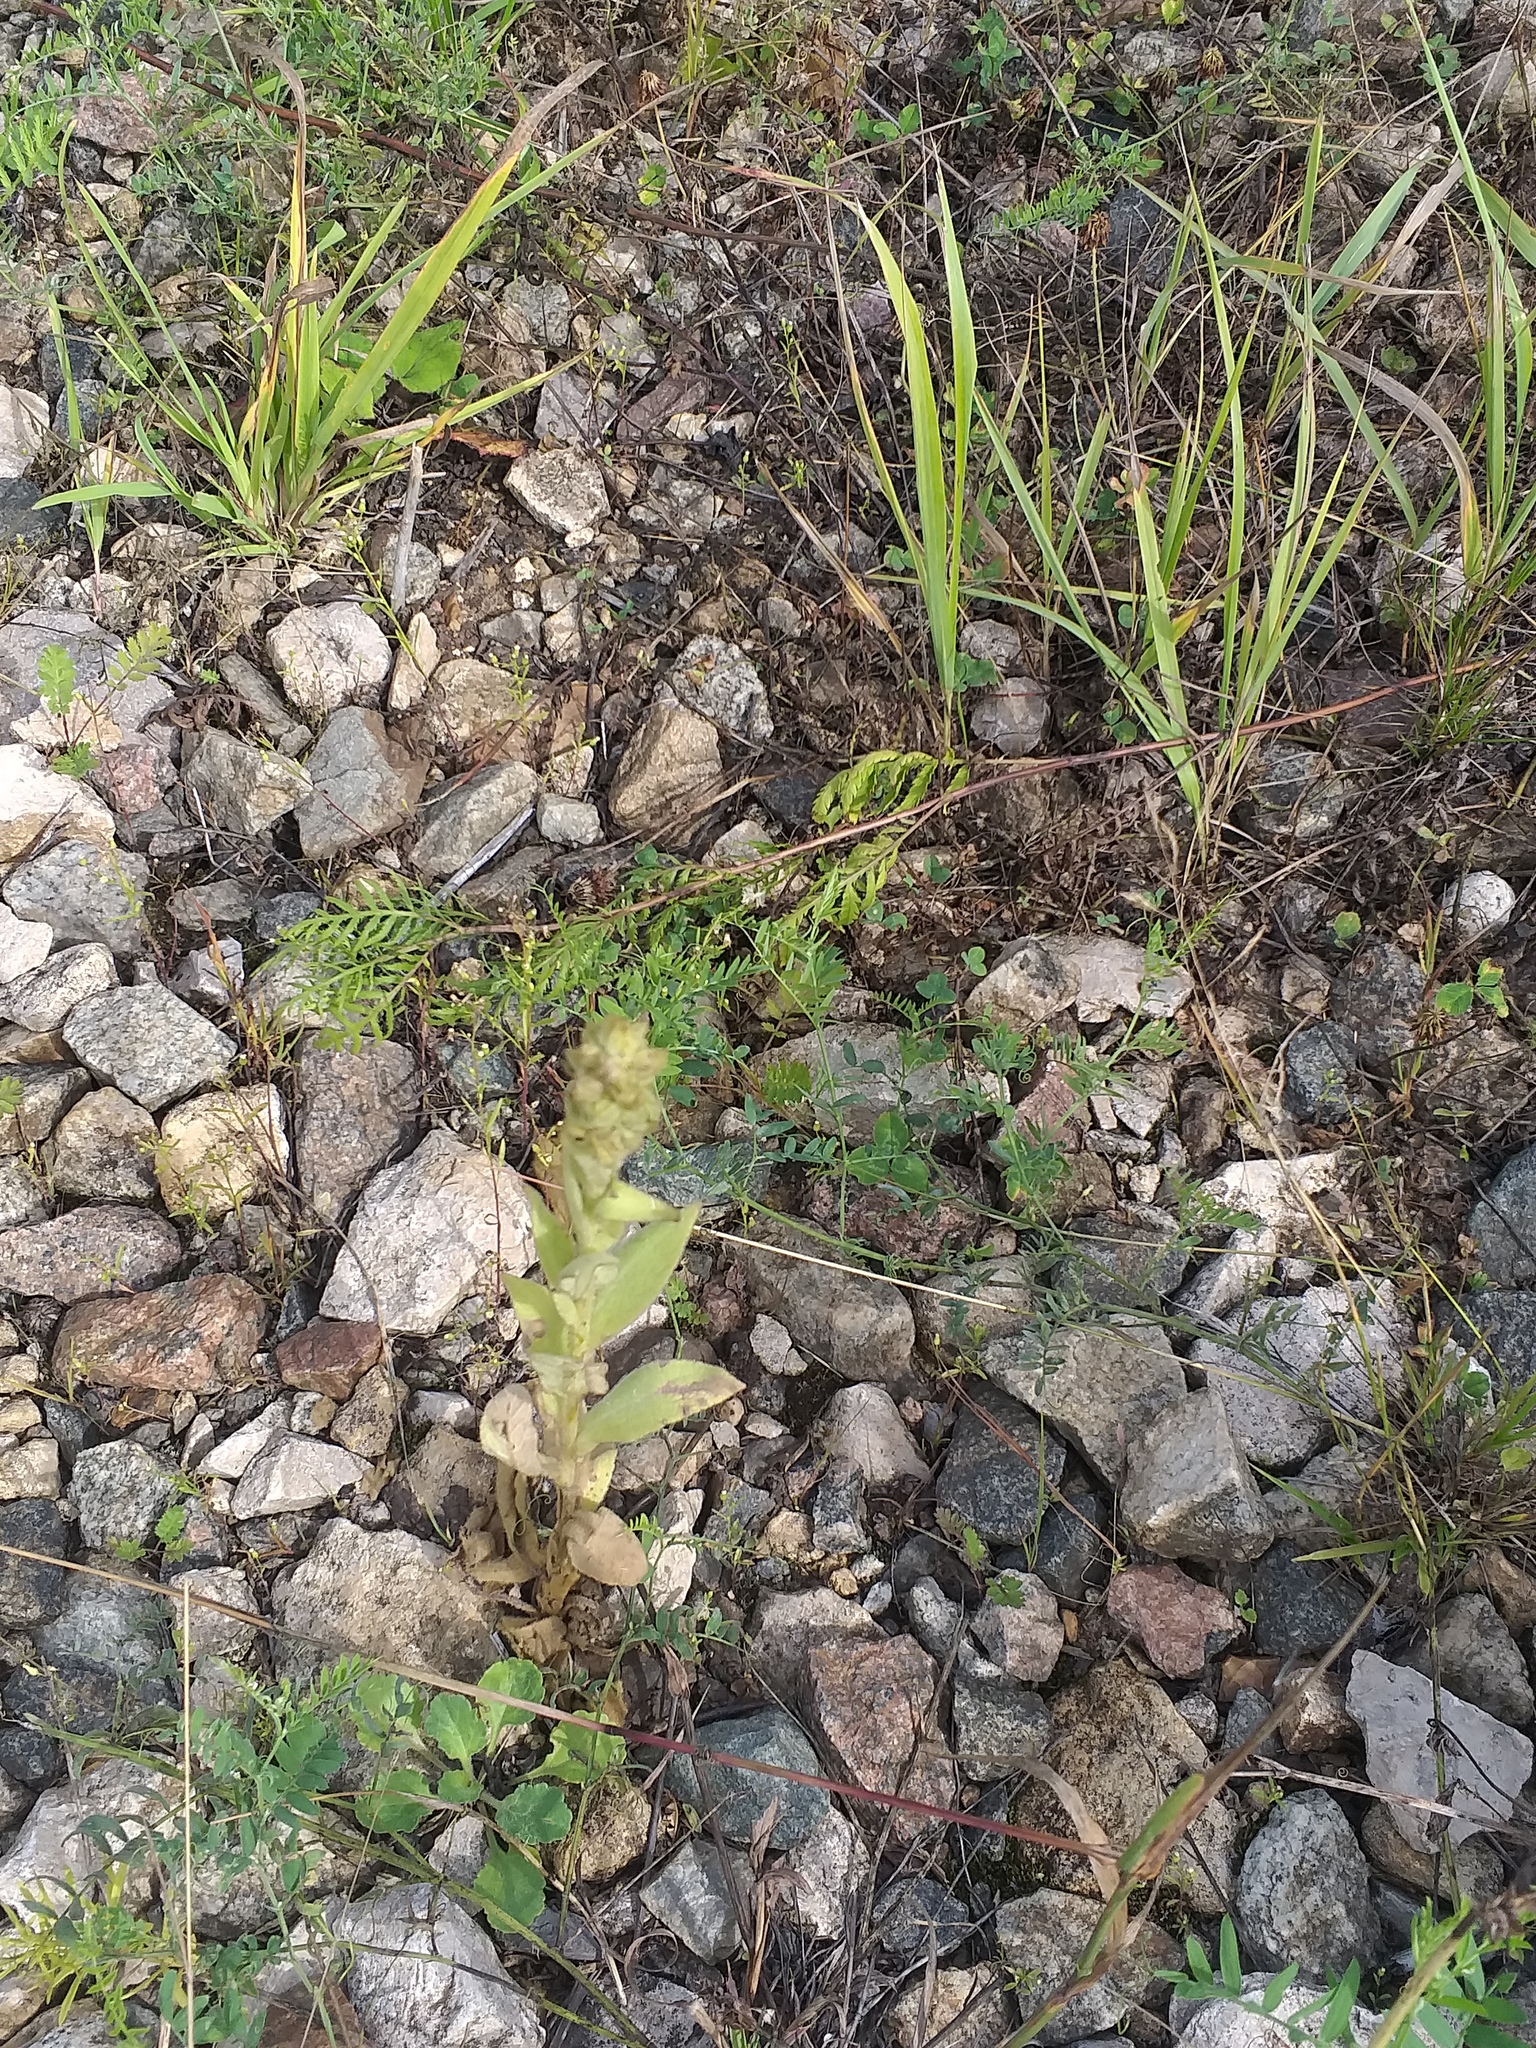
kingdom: Plantae
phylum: Tracheophyta
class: Magnoliopsida
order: Lamiales
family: Scrophulariaceae
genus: Verbascum
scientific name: Verbascum thapsus
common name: Common mullein
